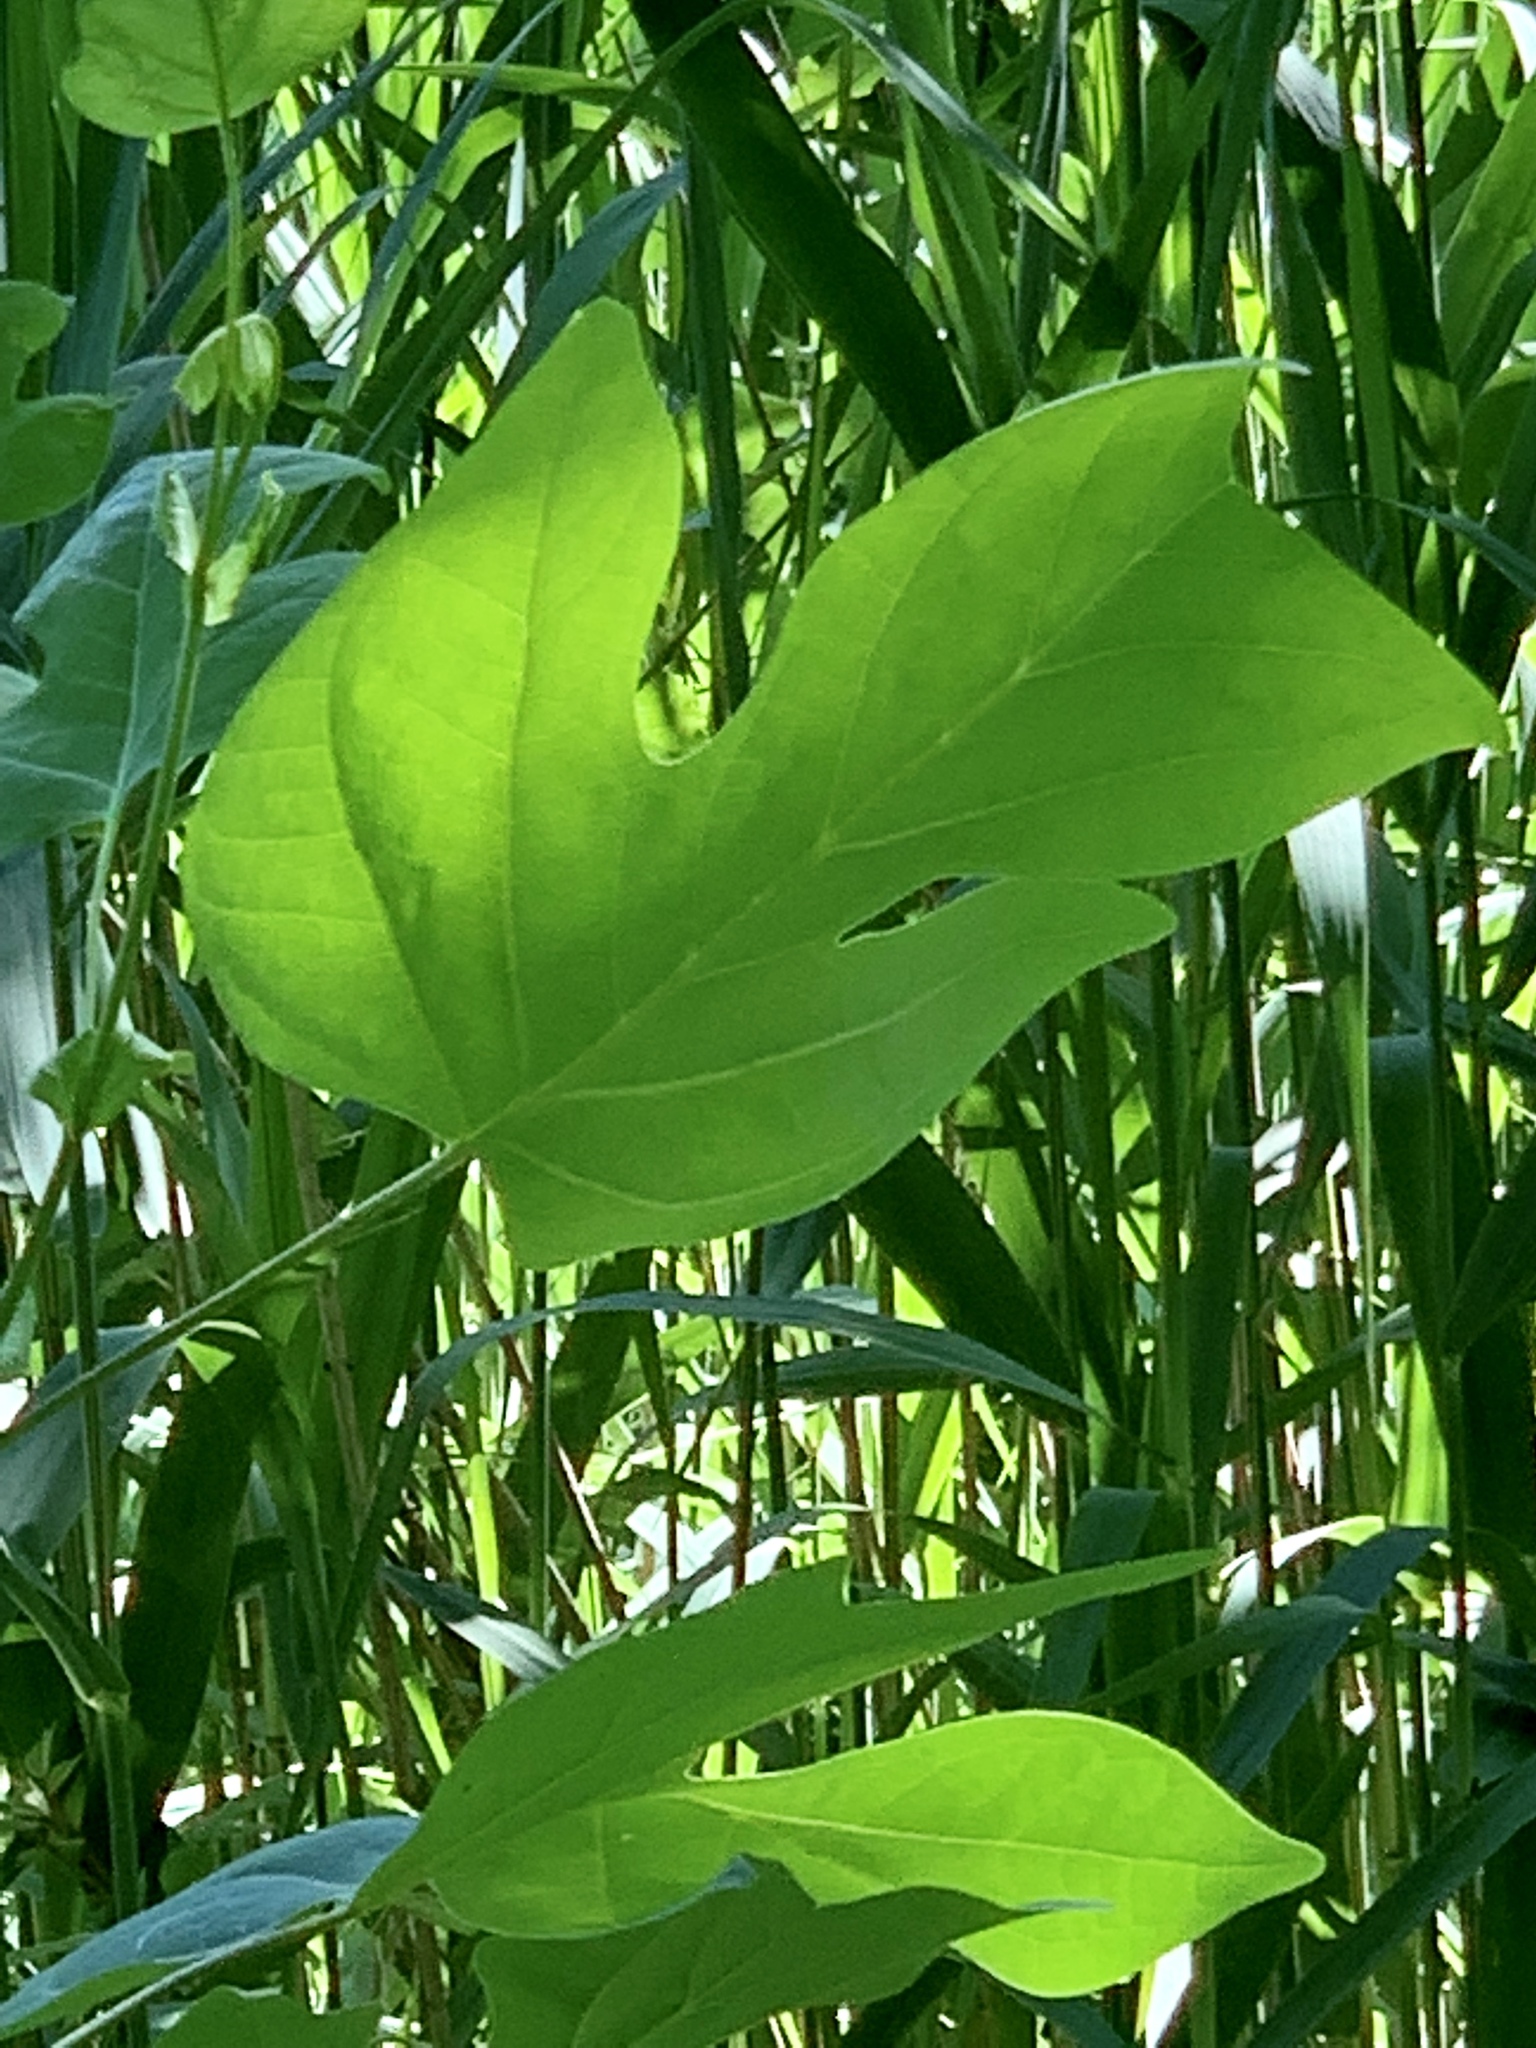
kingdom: Plantae
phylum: Tracheophyta
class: Magnoliopsida
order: Magnoliales
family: Magnoliaceae
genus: Liriodendron
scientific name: Liriodendron tulipifera
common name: Tulip tree
